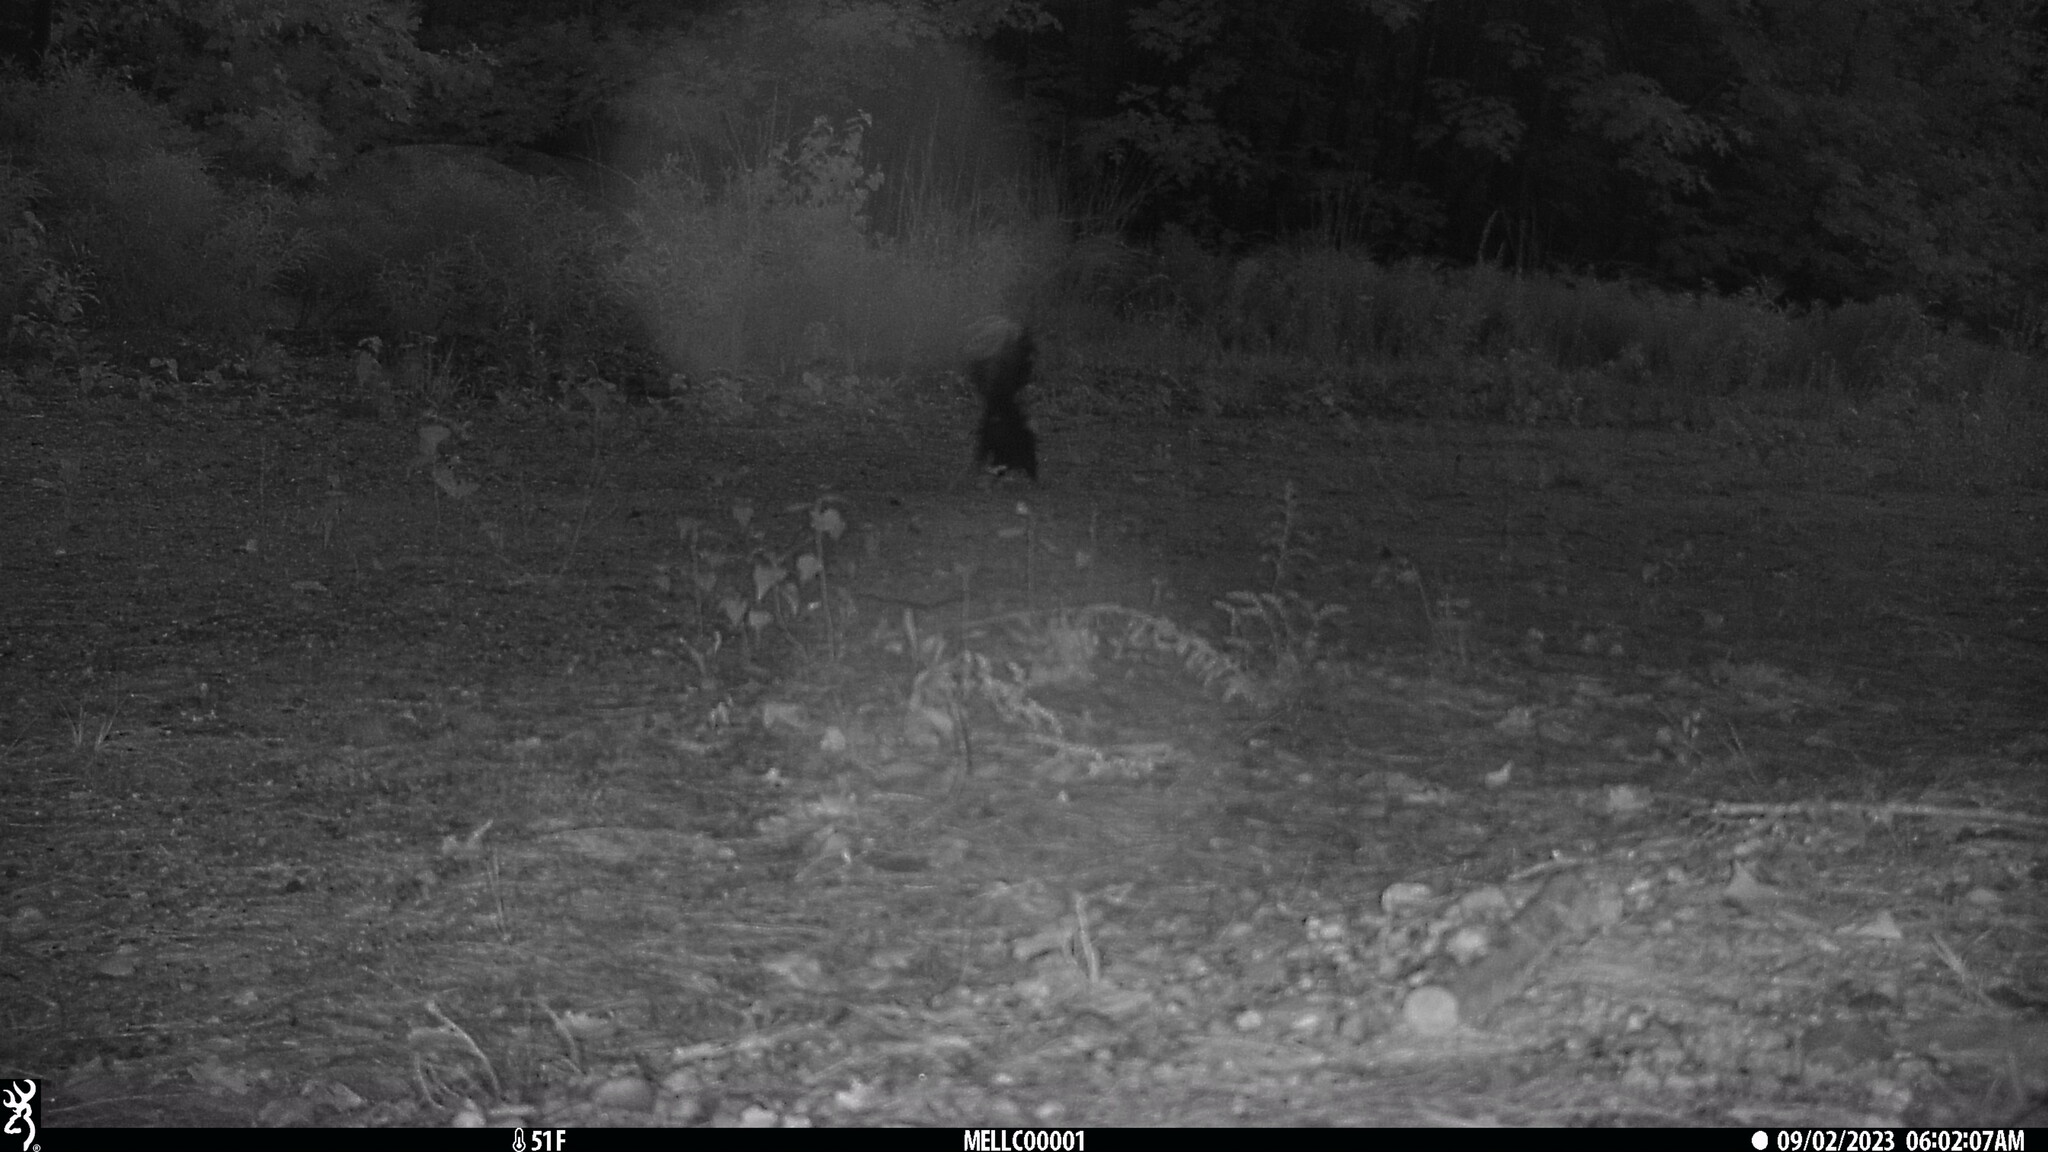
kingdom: Animalia
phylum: Chordata
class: Mammalia
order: Carnivora
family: Mephitidae
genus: Mephitis
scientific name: Mephitis mephitis
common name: Striped skunk
